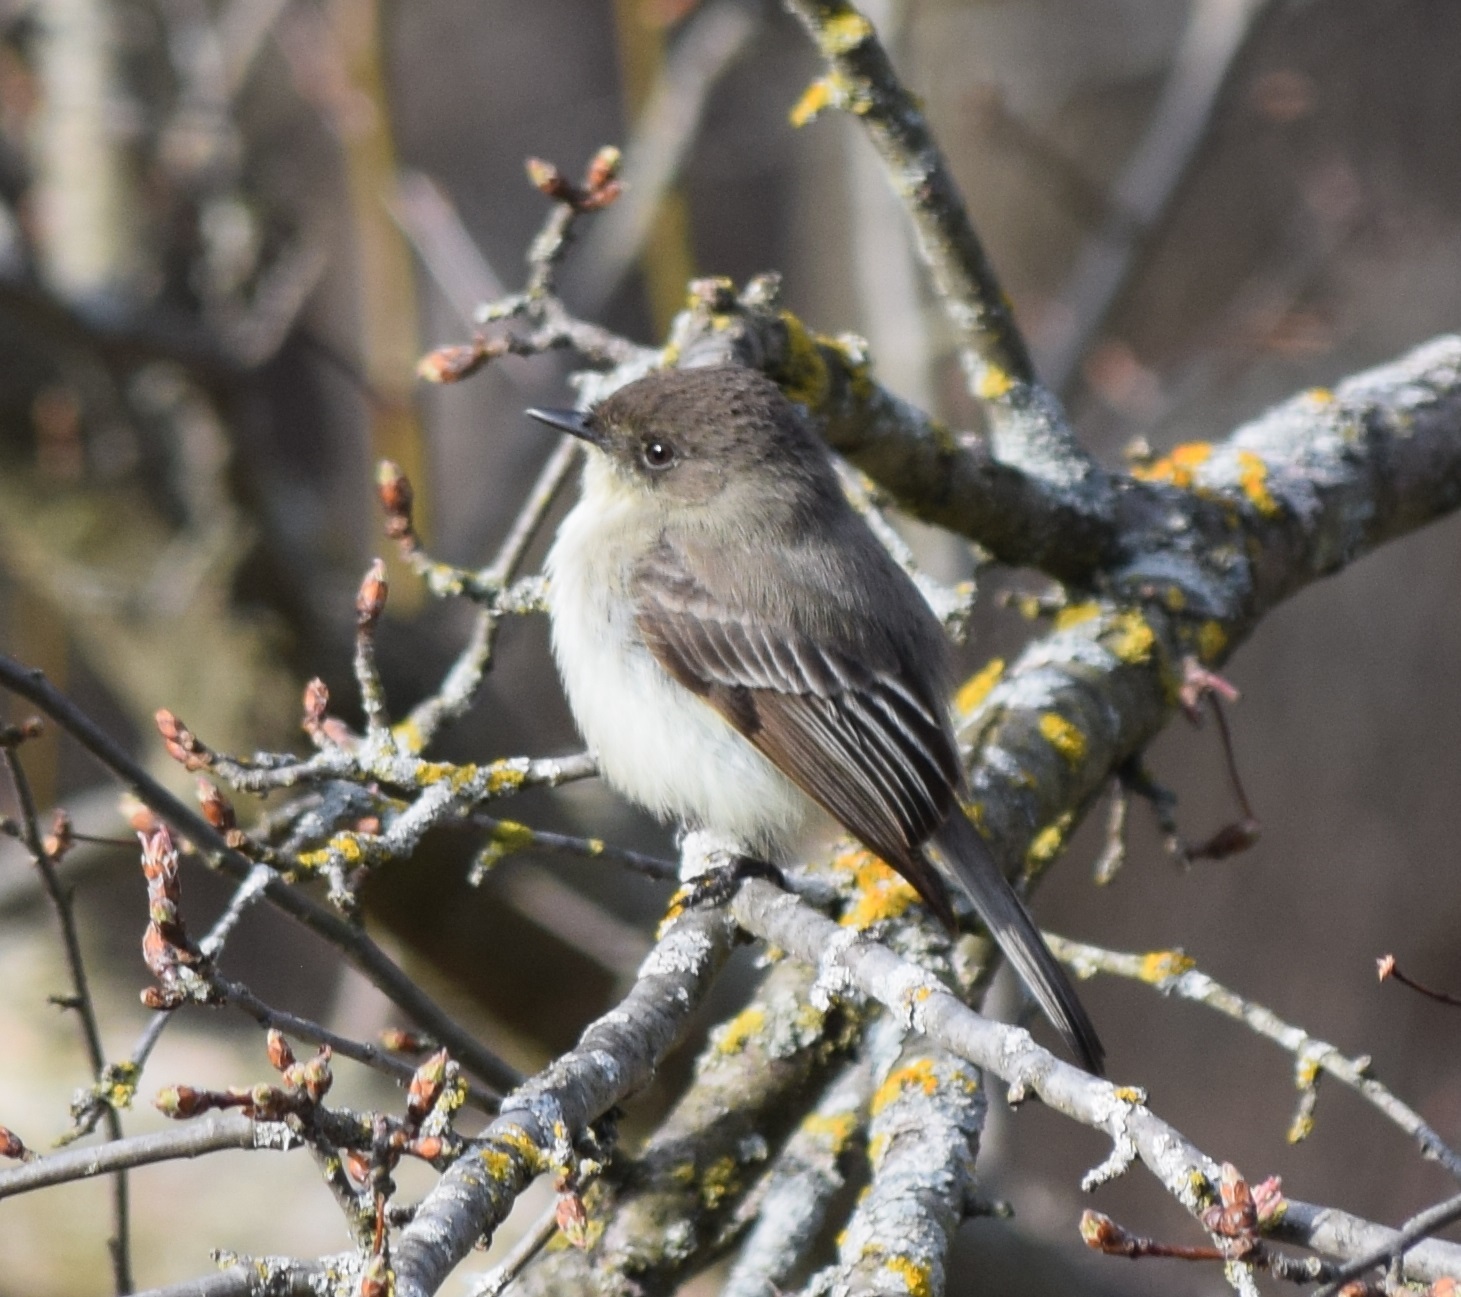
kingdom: Animalia
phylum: Chordata
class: Aves
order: Passeriformes
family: Tyrannidae
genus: Sayornis
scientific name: Sayornis phoebe
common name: Eastern phoebe
